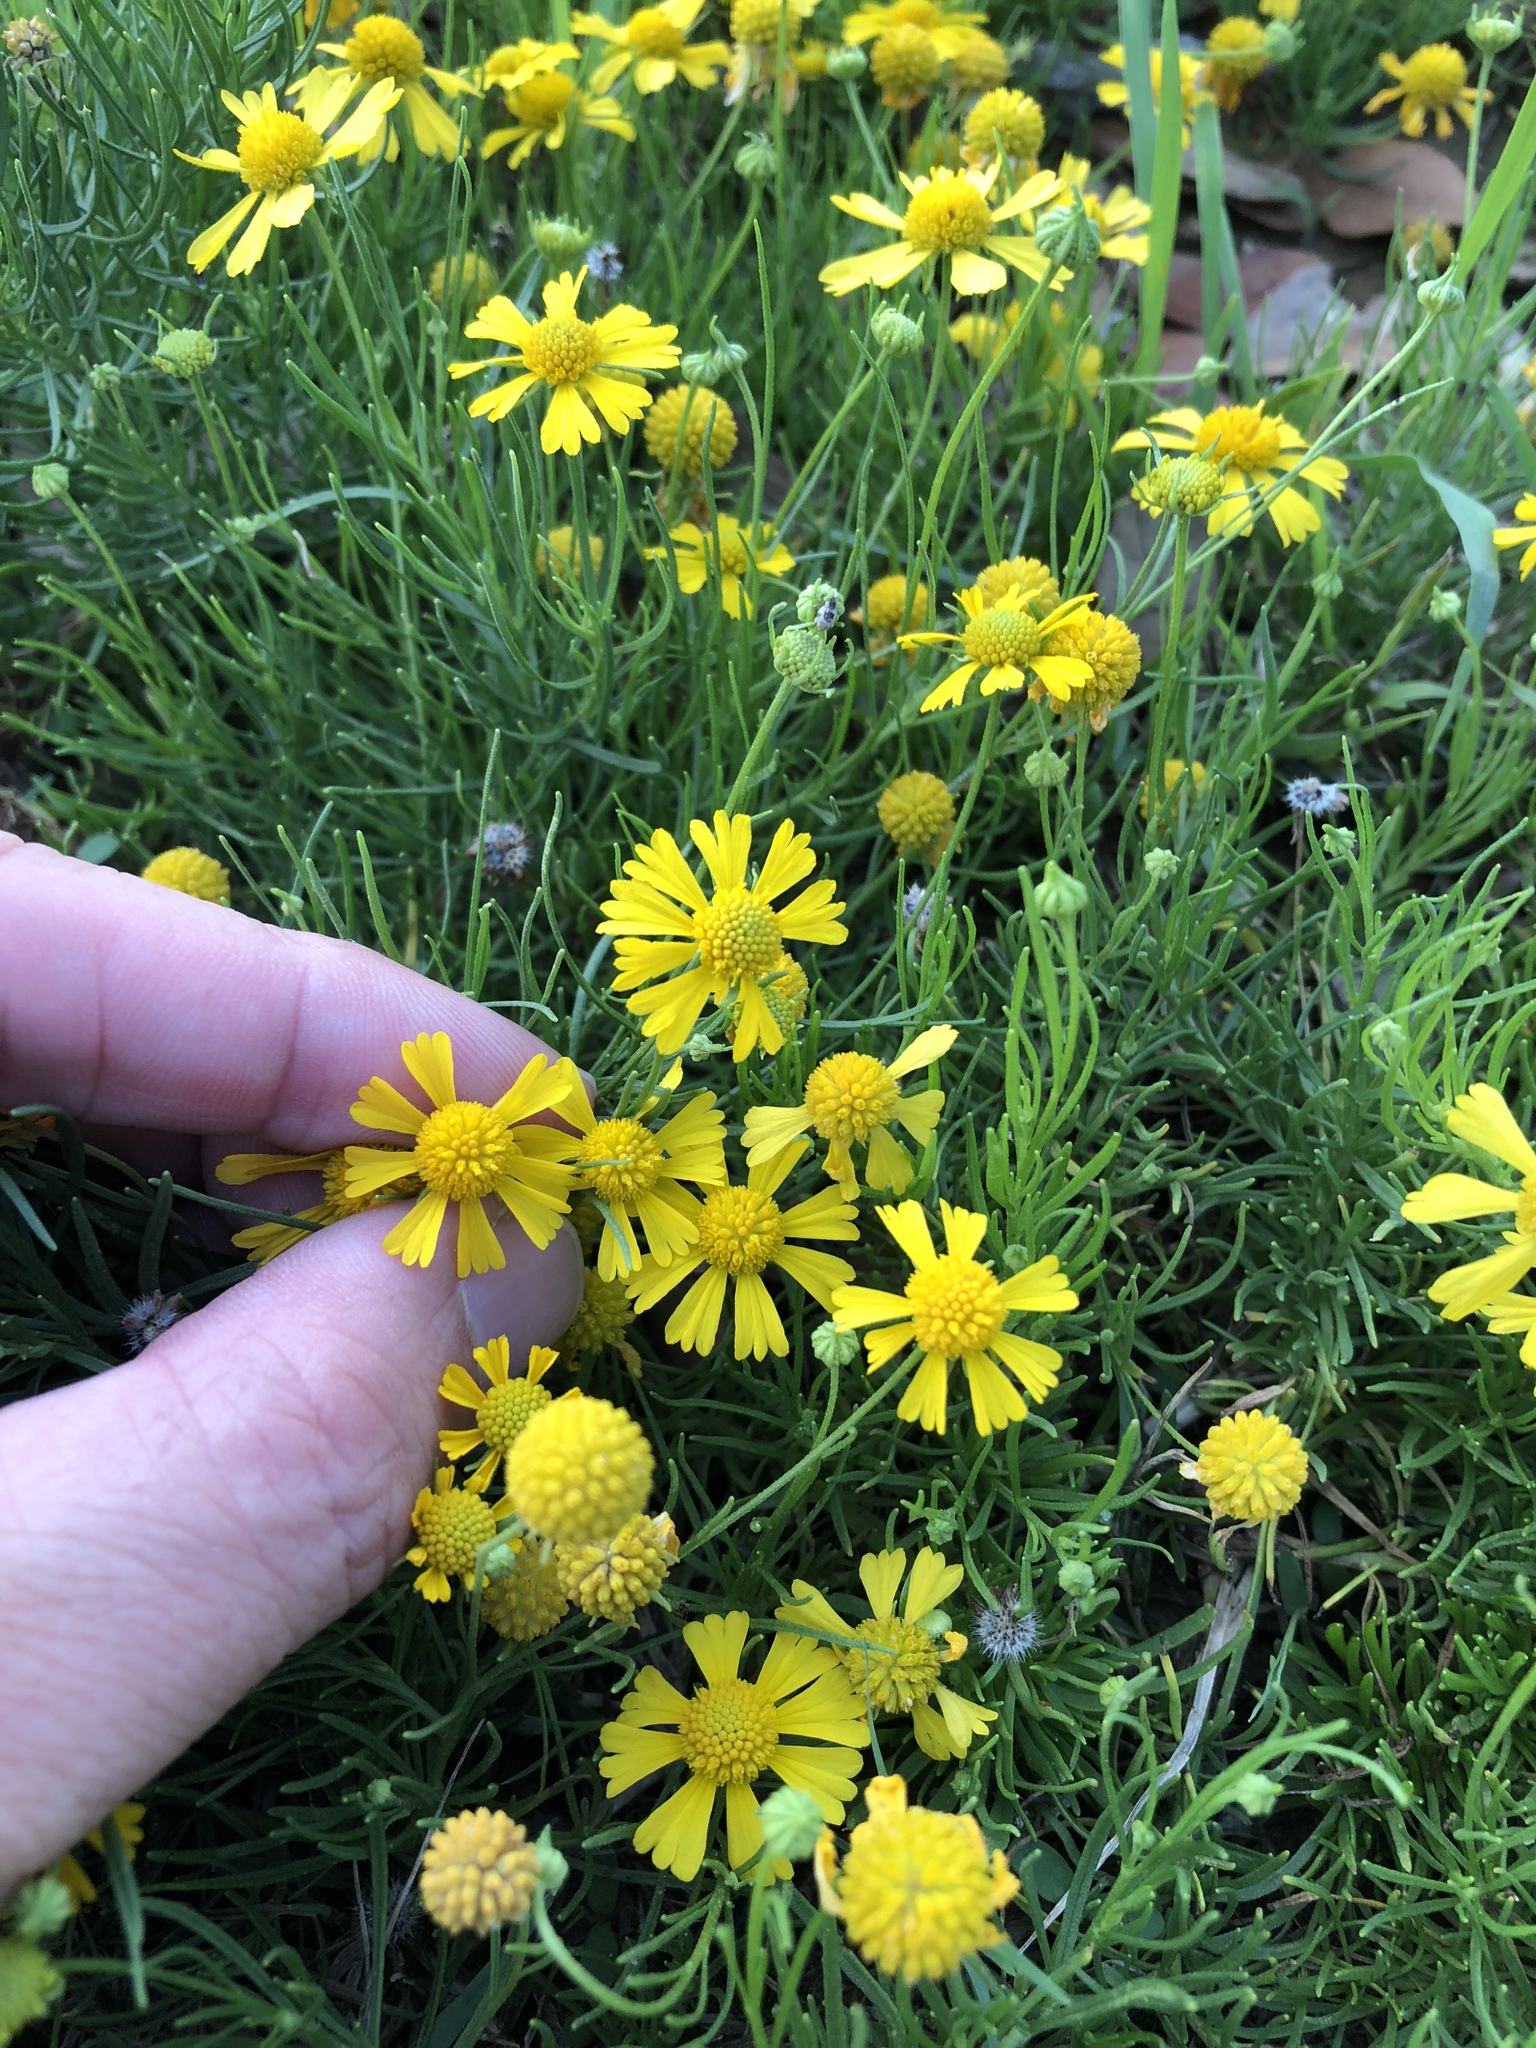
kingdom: Plantae
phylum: Tracheophyta
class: Magnoliopsida
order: Asterales
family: Asteraceae
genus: Helenium
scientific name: Helenium amarum
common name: Bitter sneezeweed
